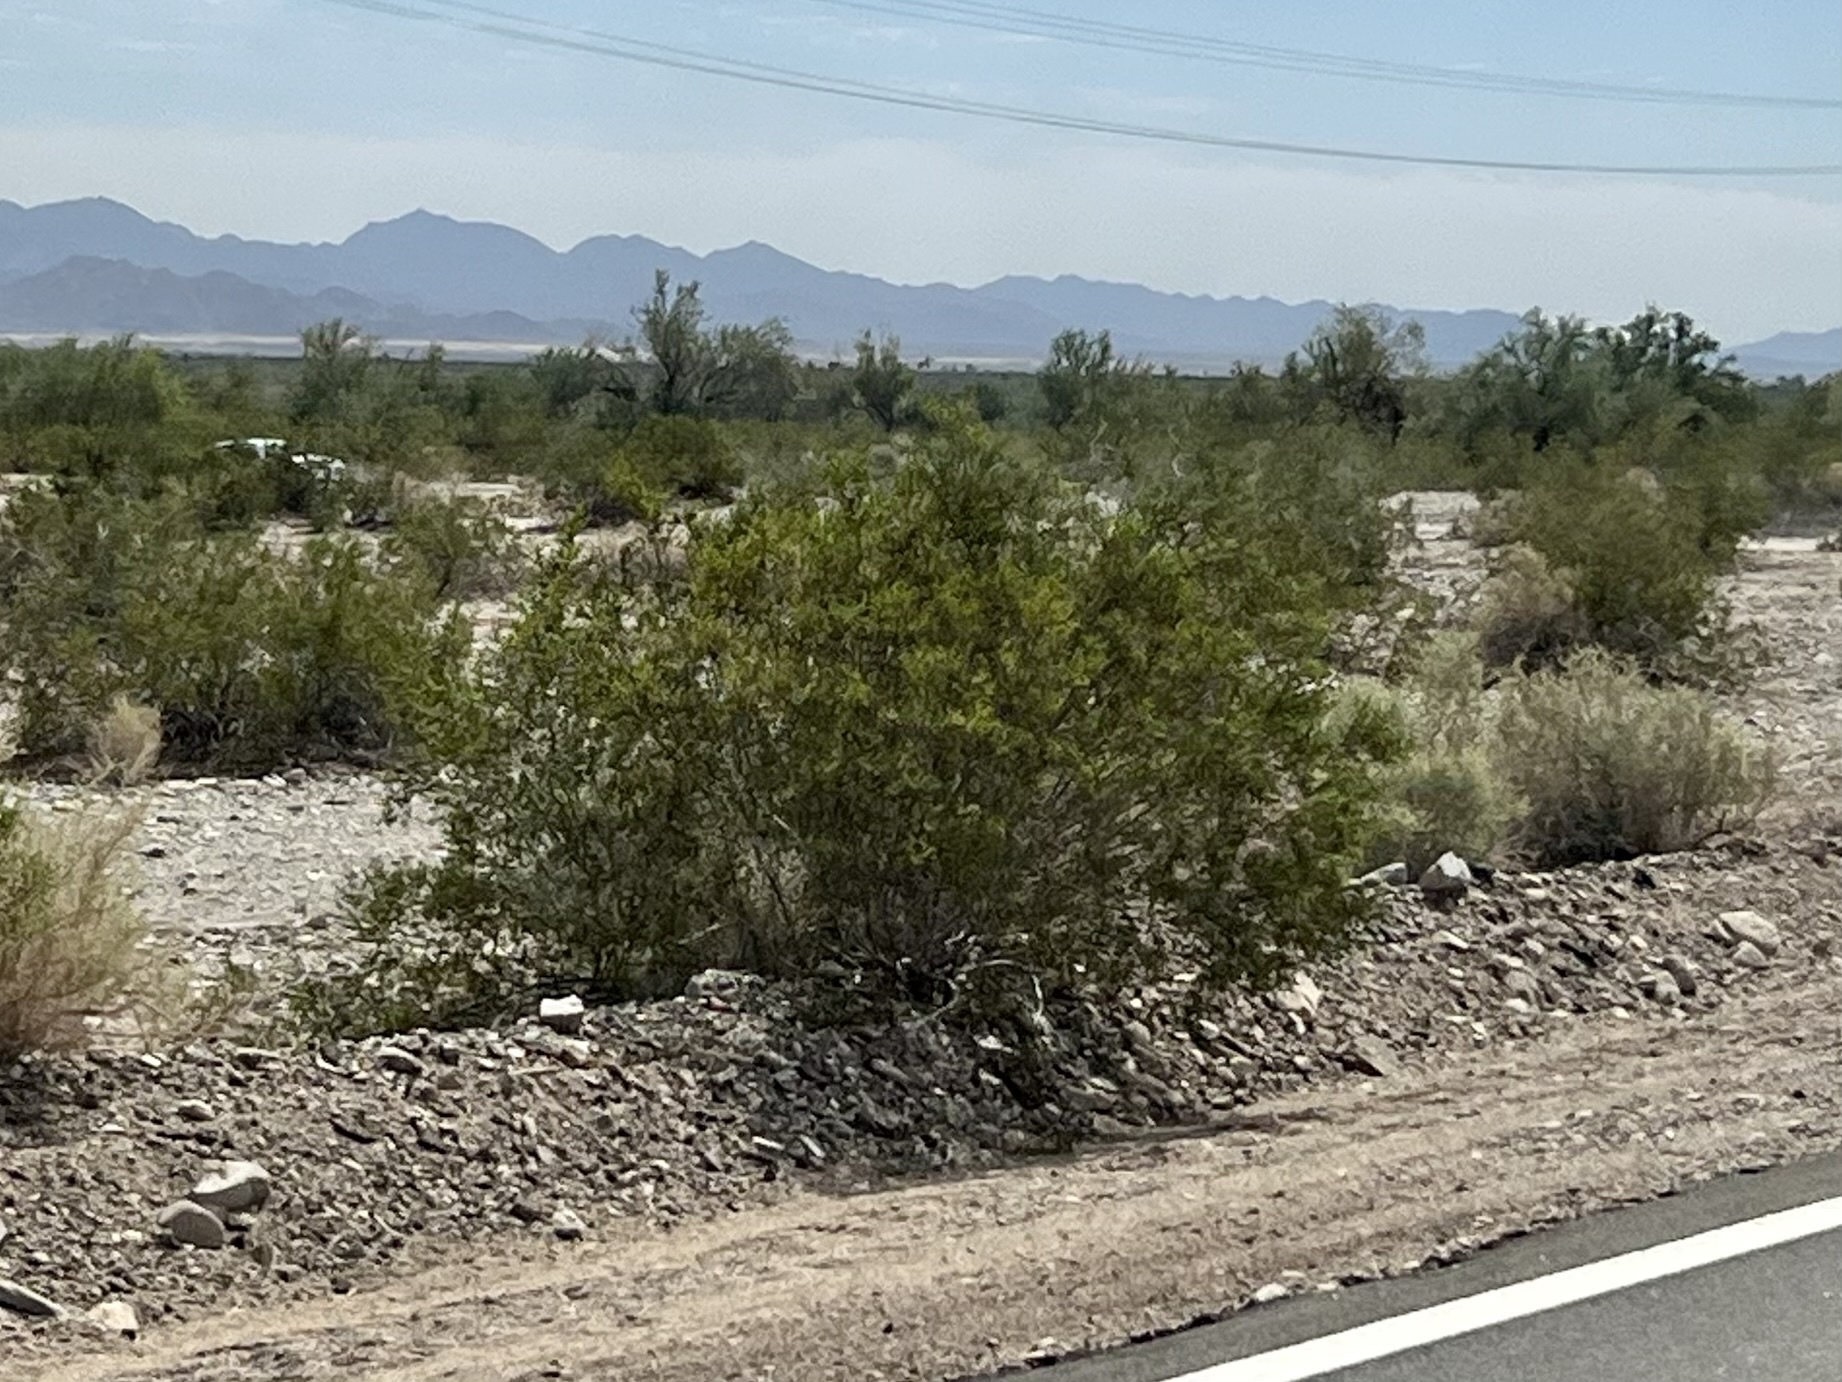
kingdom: Plantae
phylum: Tracheophyta
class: Magnoliopsida
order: Zygophyllales
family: Zygophyllaceae
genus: Larrea
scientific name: Larrea tridentata
